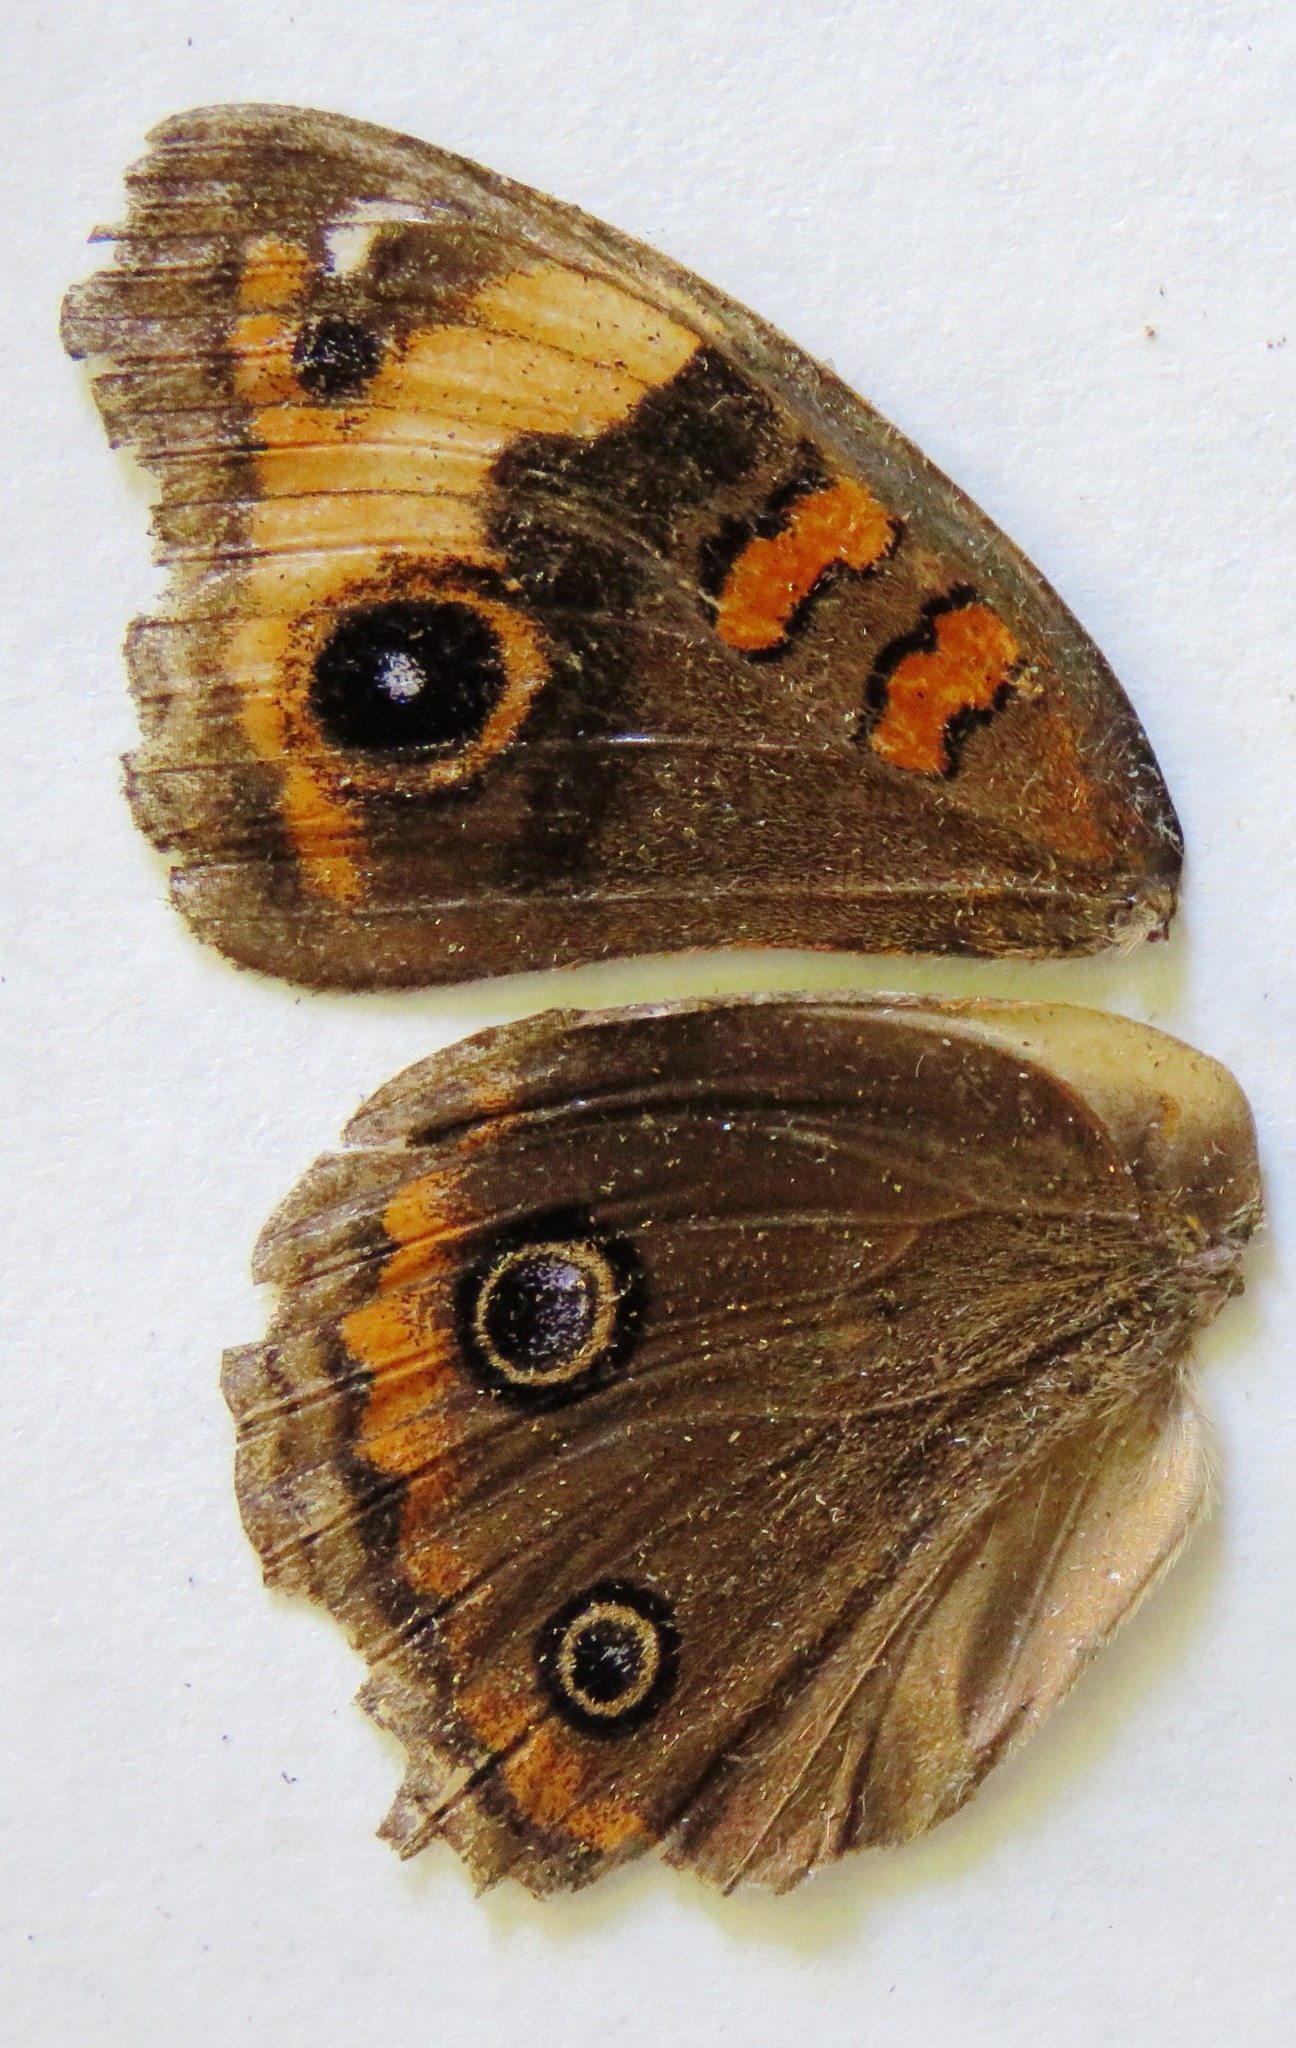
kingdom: Animalia
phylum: Arthropoda
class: Insecta
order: Lepidoptera
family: Nymphalidae
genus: Junonia
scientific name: Junonia lavinia
